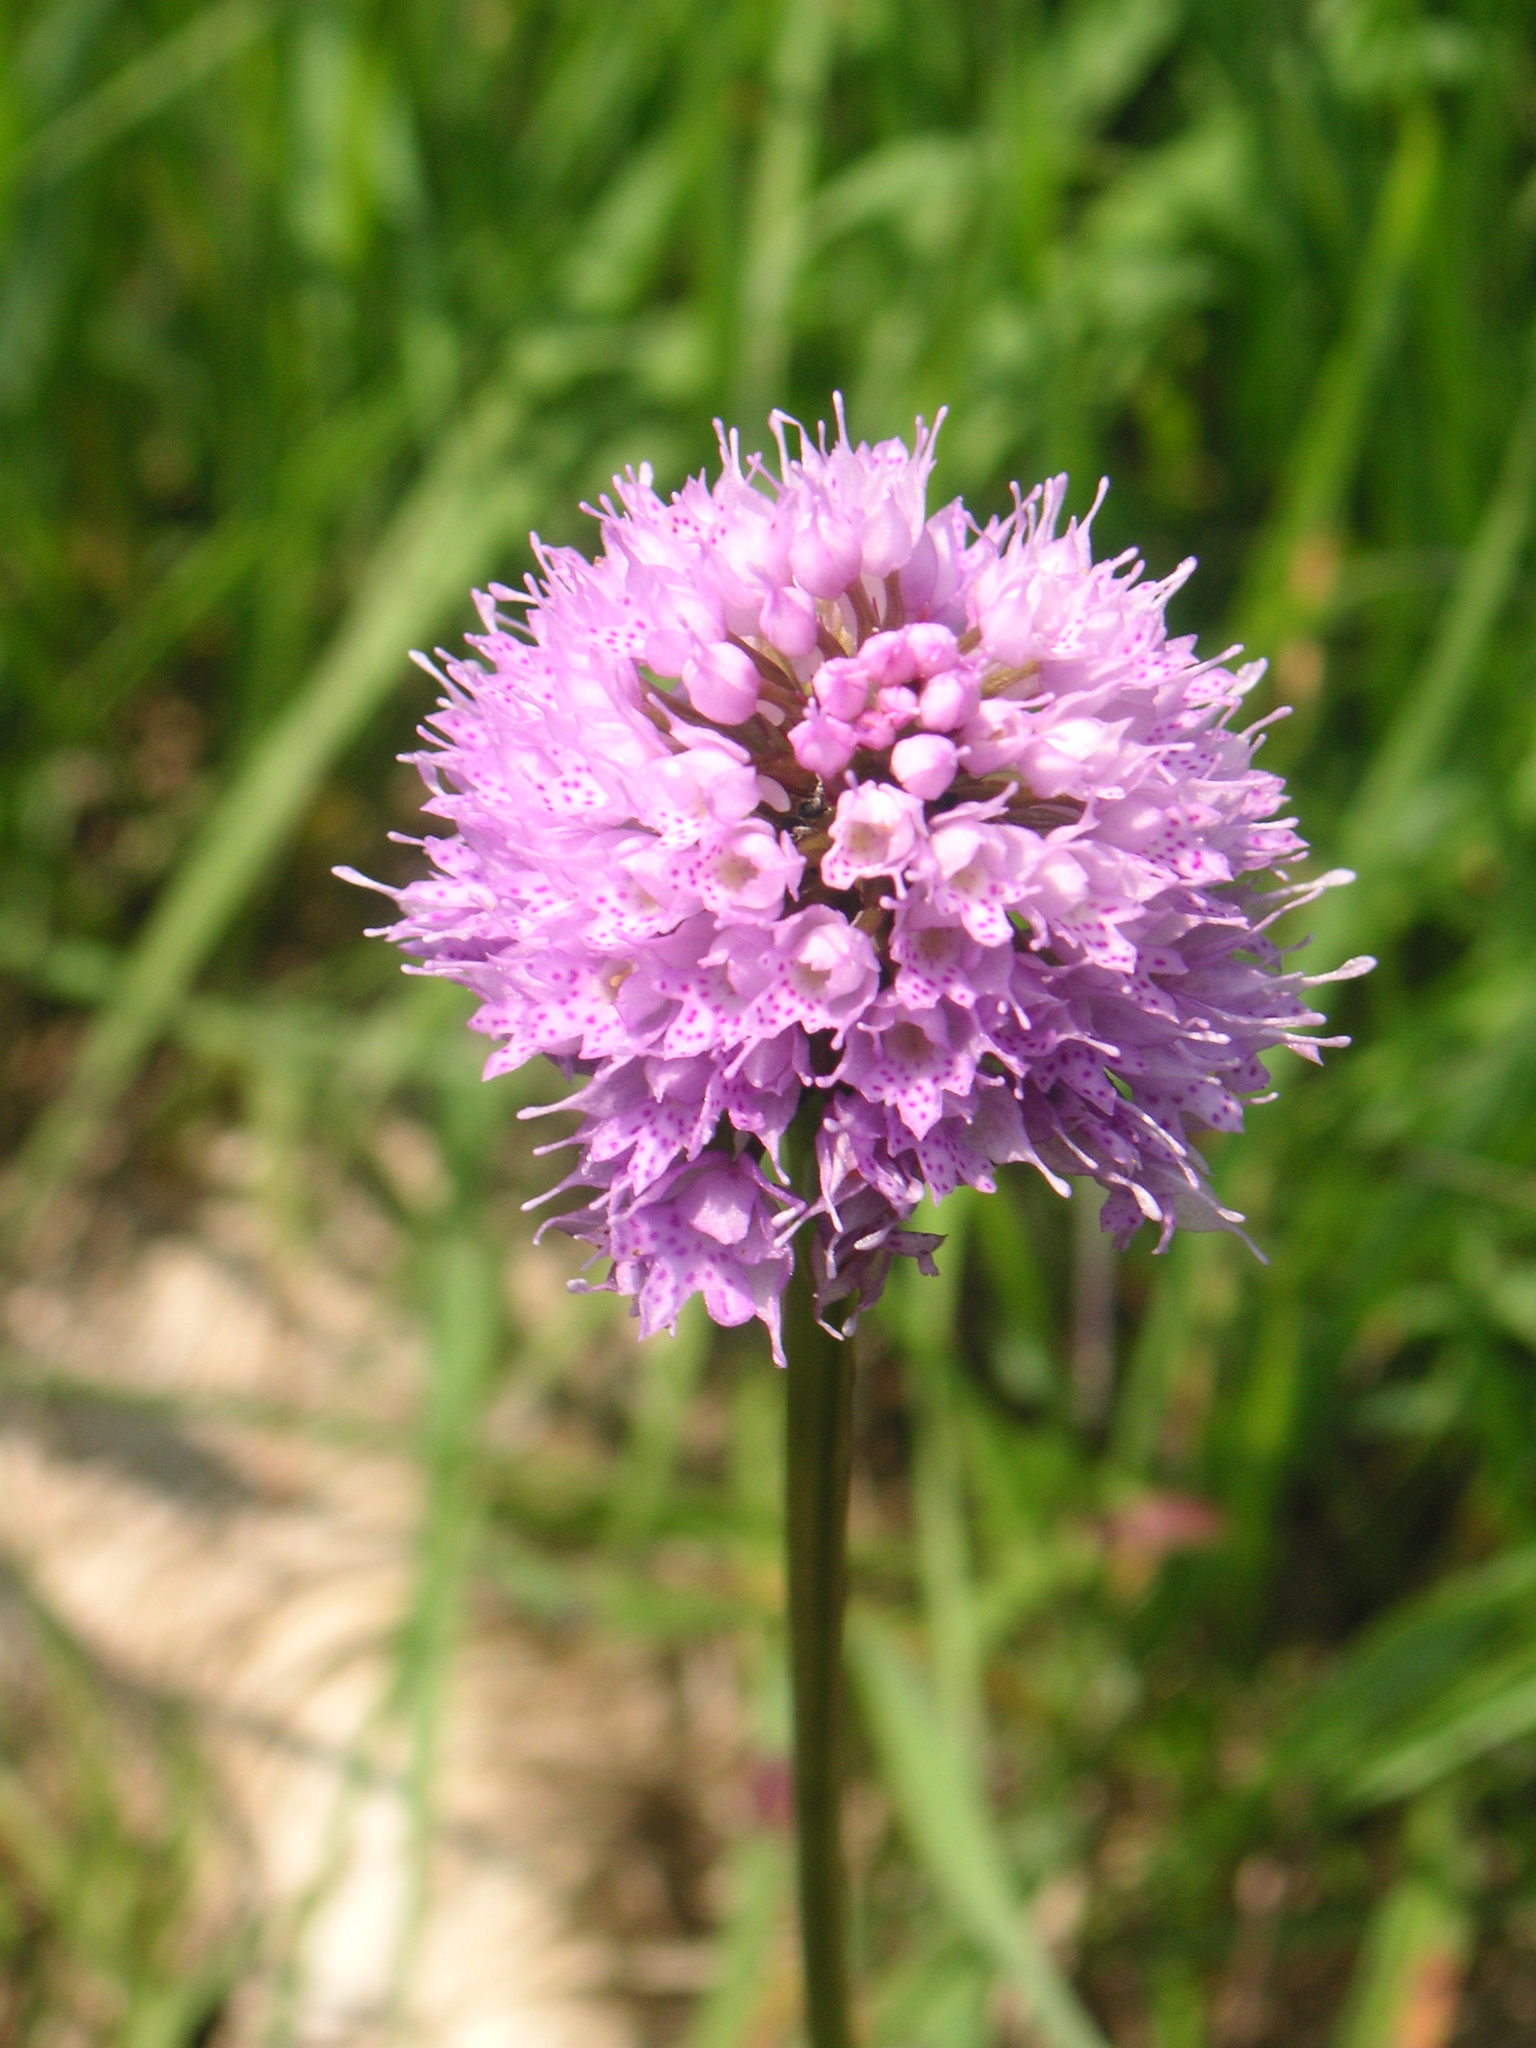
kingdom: Plantae
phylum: Tracheophyta
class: Liliopsida
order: Asparagales
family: Orchidaceae
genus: Traunsteinera
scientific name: Traunsteinera globosa
